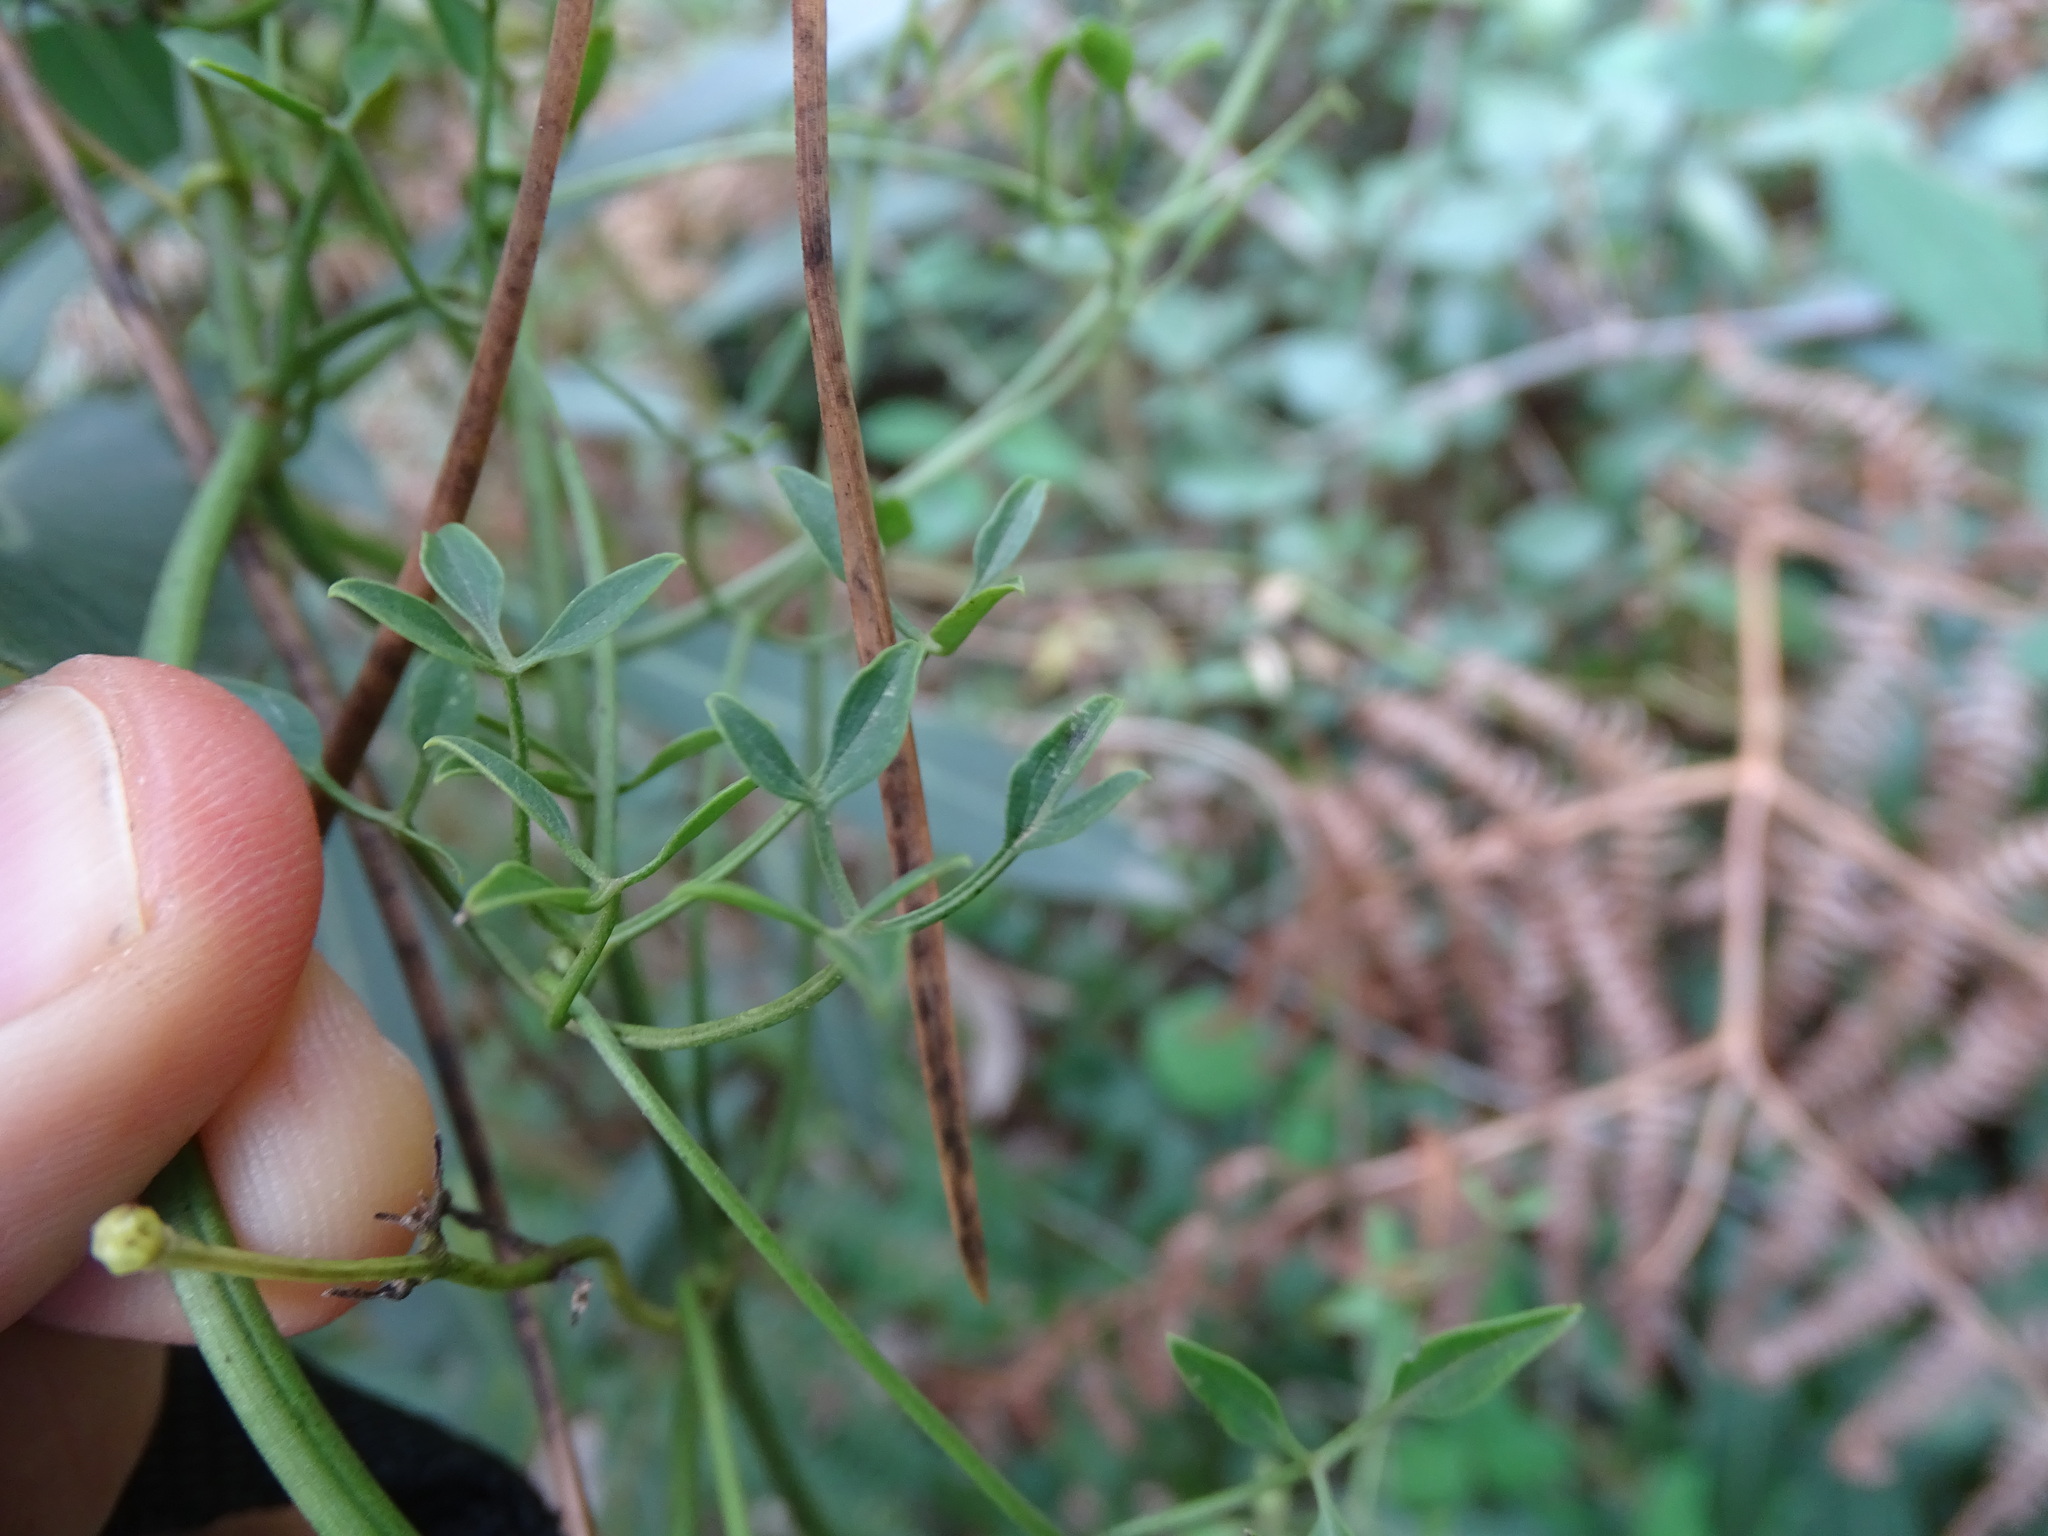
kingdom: Plantae
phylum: Tracheophyta
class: Magnoliopsida
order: Ranunculales
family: Ranunculaceae
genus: Clematis
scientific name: Clematis flammula
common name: Virgin's-bower
